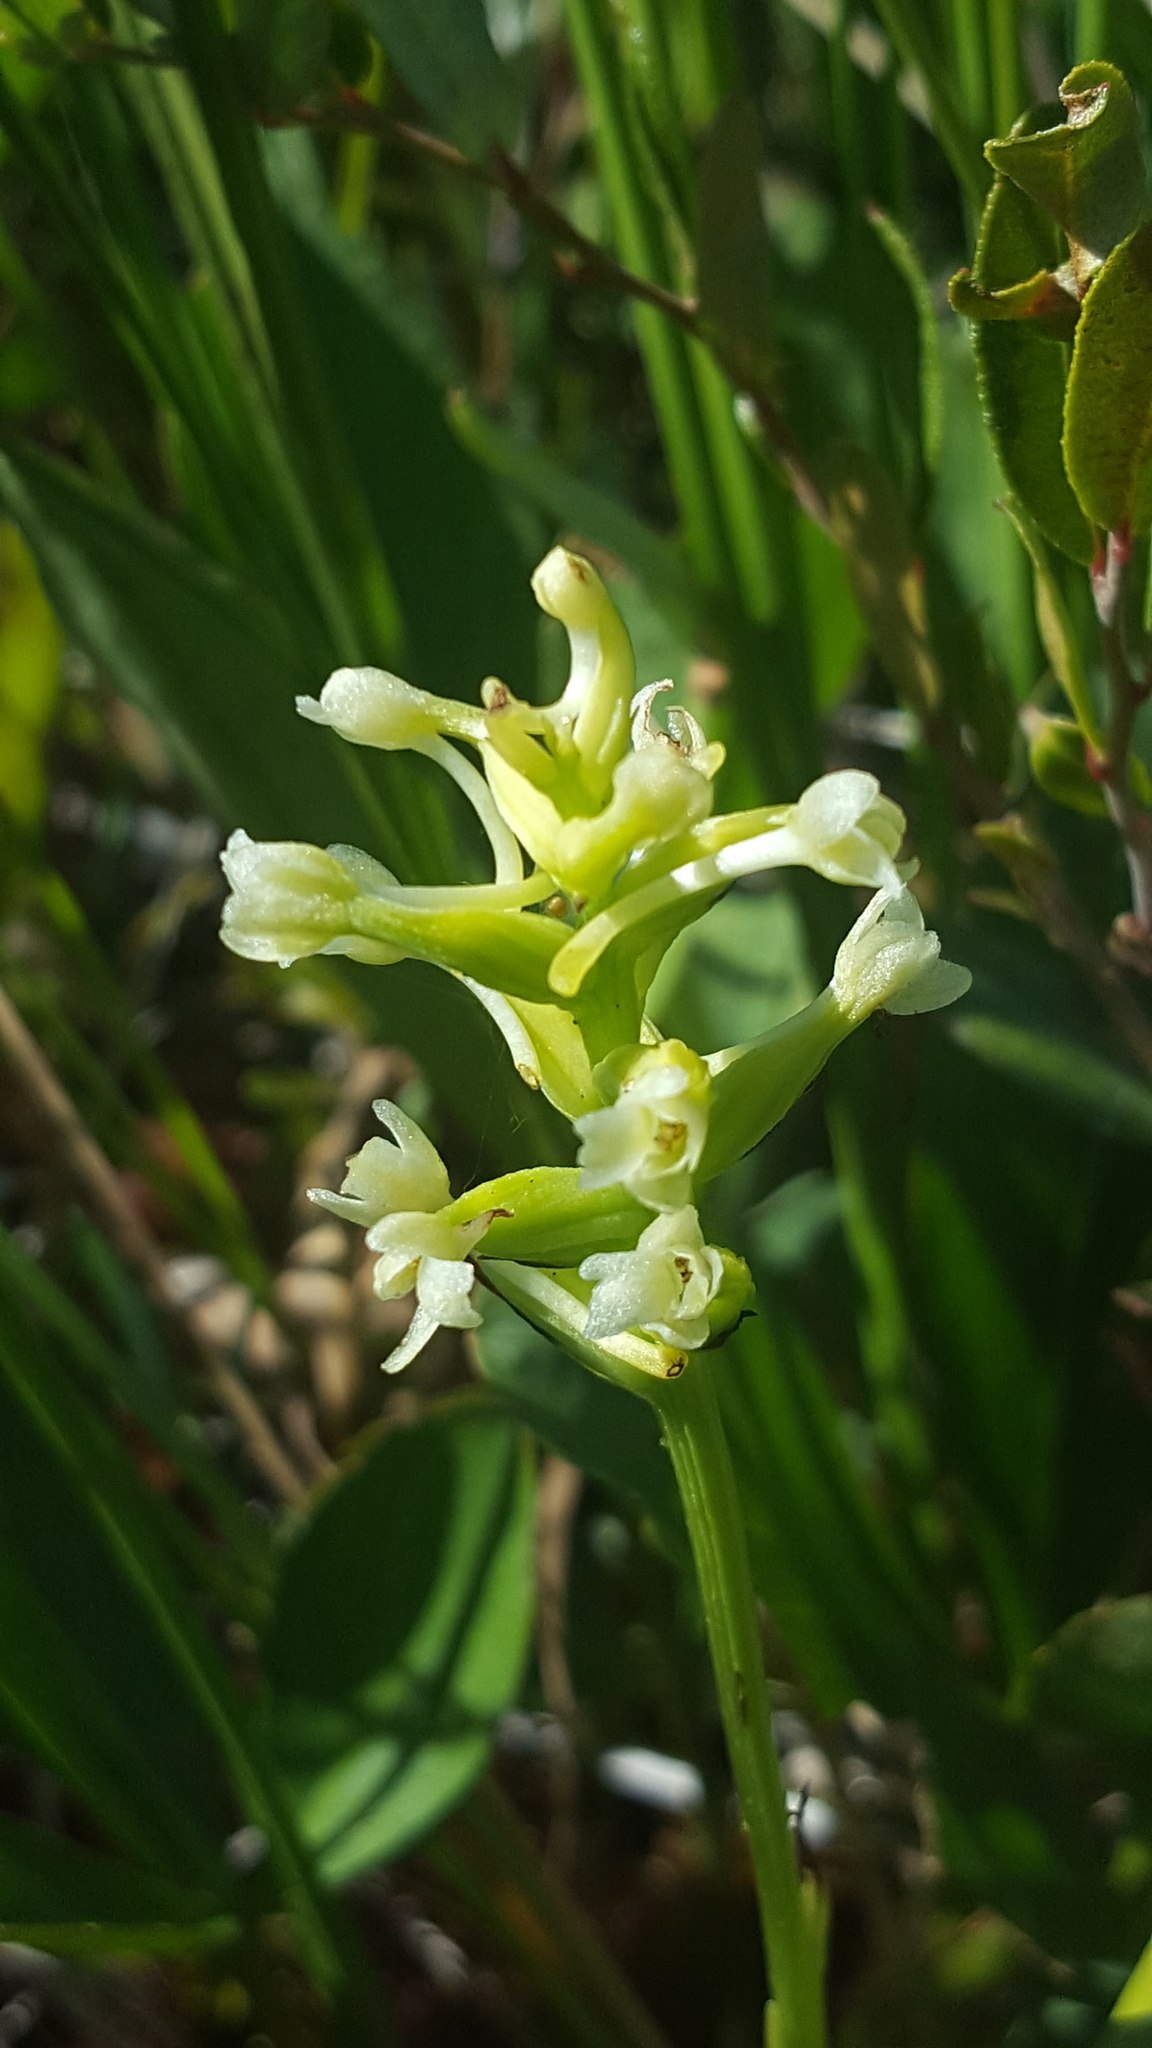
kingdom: Plantae
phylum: Tracheophyta
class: Liliopsida
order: Asparagales
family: Orchidaceae
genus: Platanthera
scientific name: Platanthera clavellata
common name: Club-spur orchid
